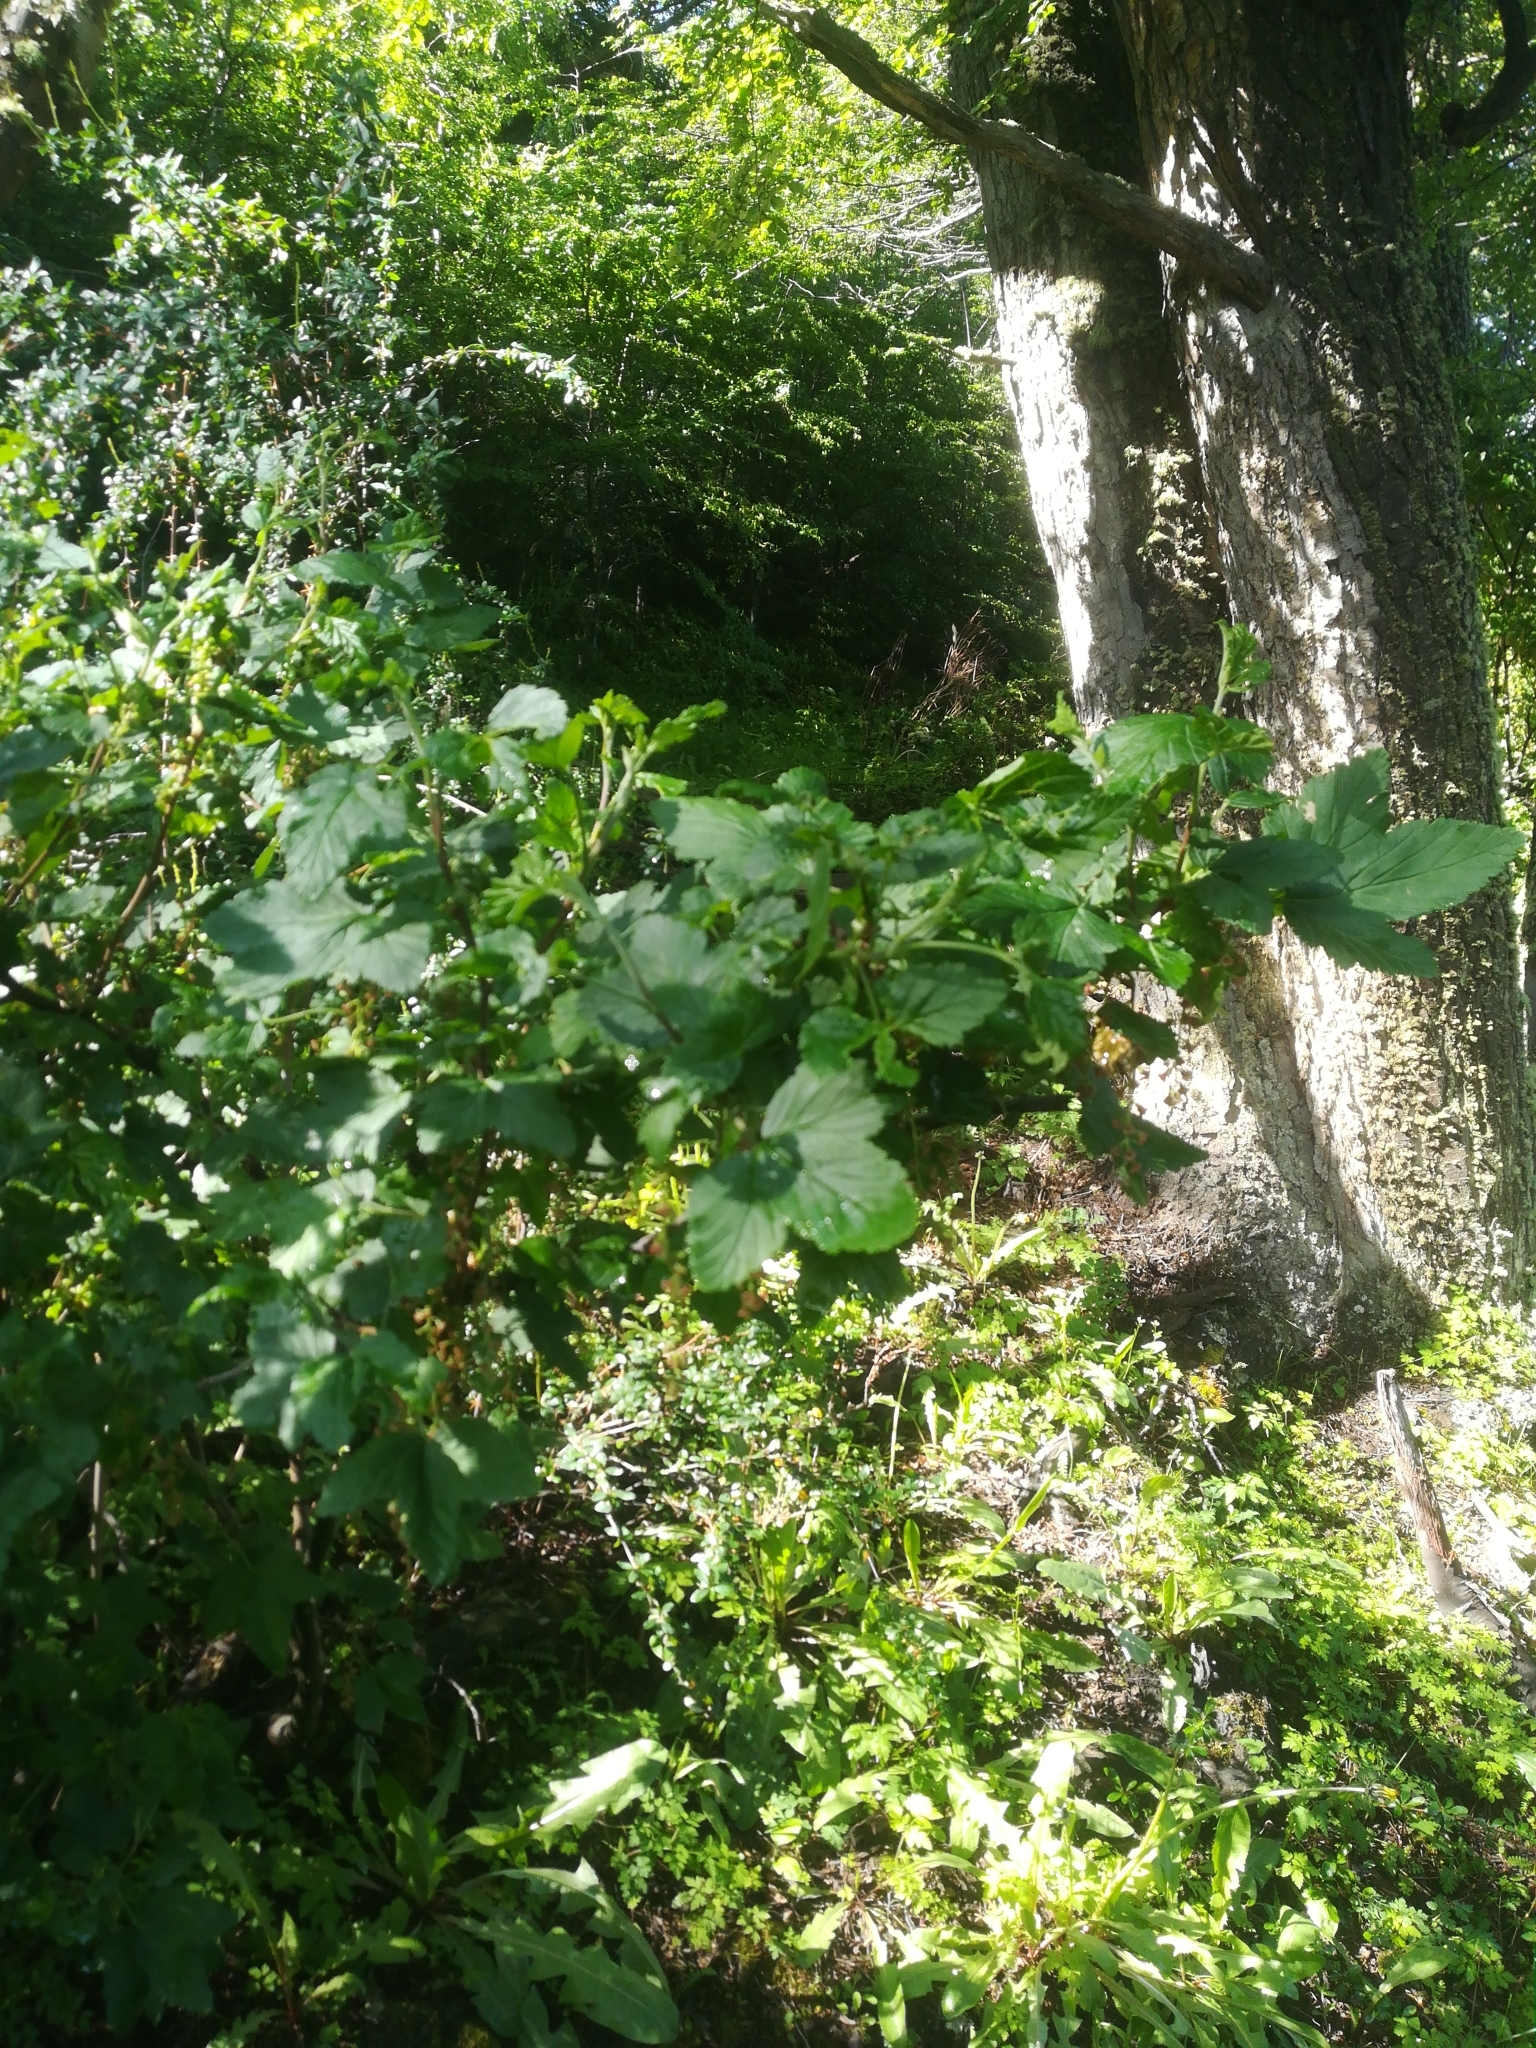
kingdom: Plantae
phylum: Tracheophyta
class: Magnoliopsida
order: Saxifragales
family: Grossulariaceae
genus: Ribes
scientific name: Ribes magellanicum
